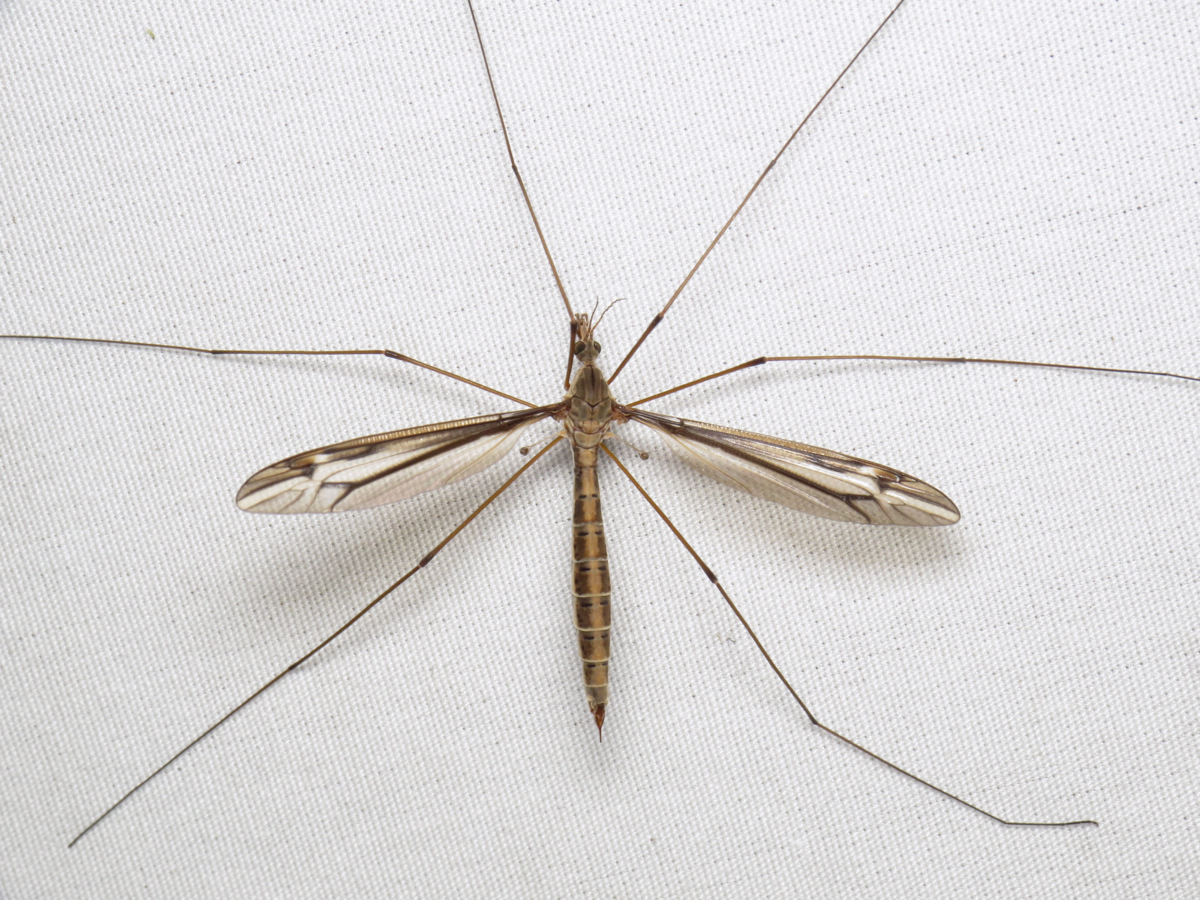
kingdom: Animalia
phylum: Arthropoda
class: Insecta
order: Diptera
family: Tipulidae
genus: Tipula
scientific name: Tipula furca
